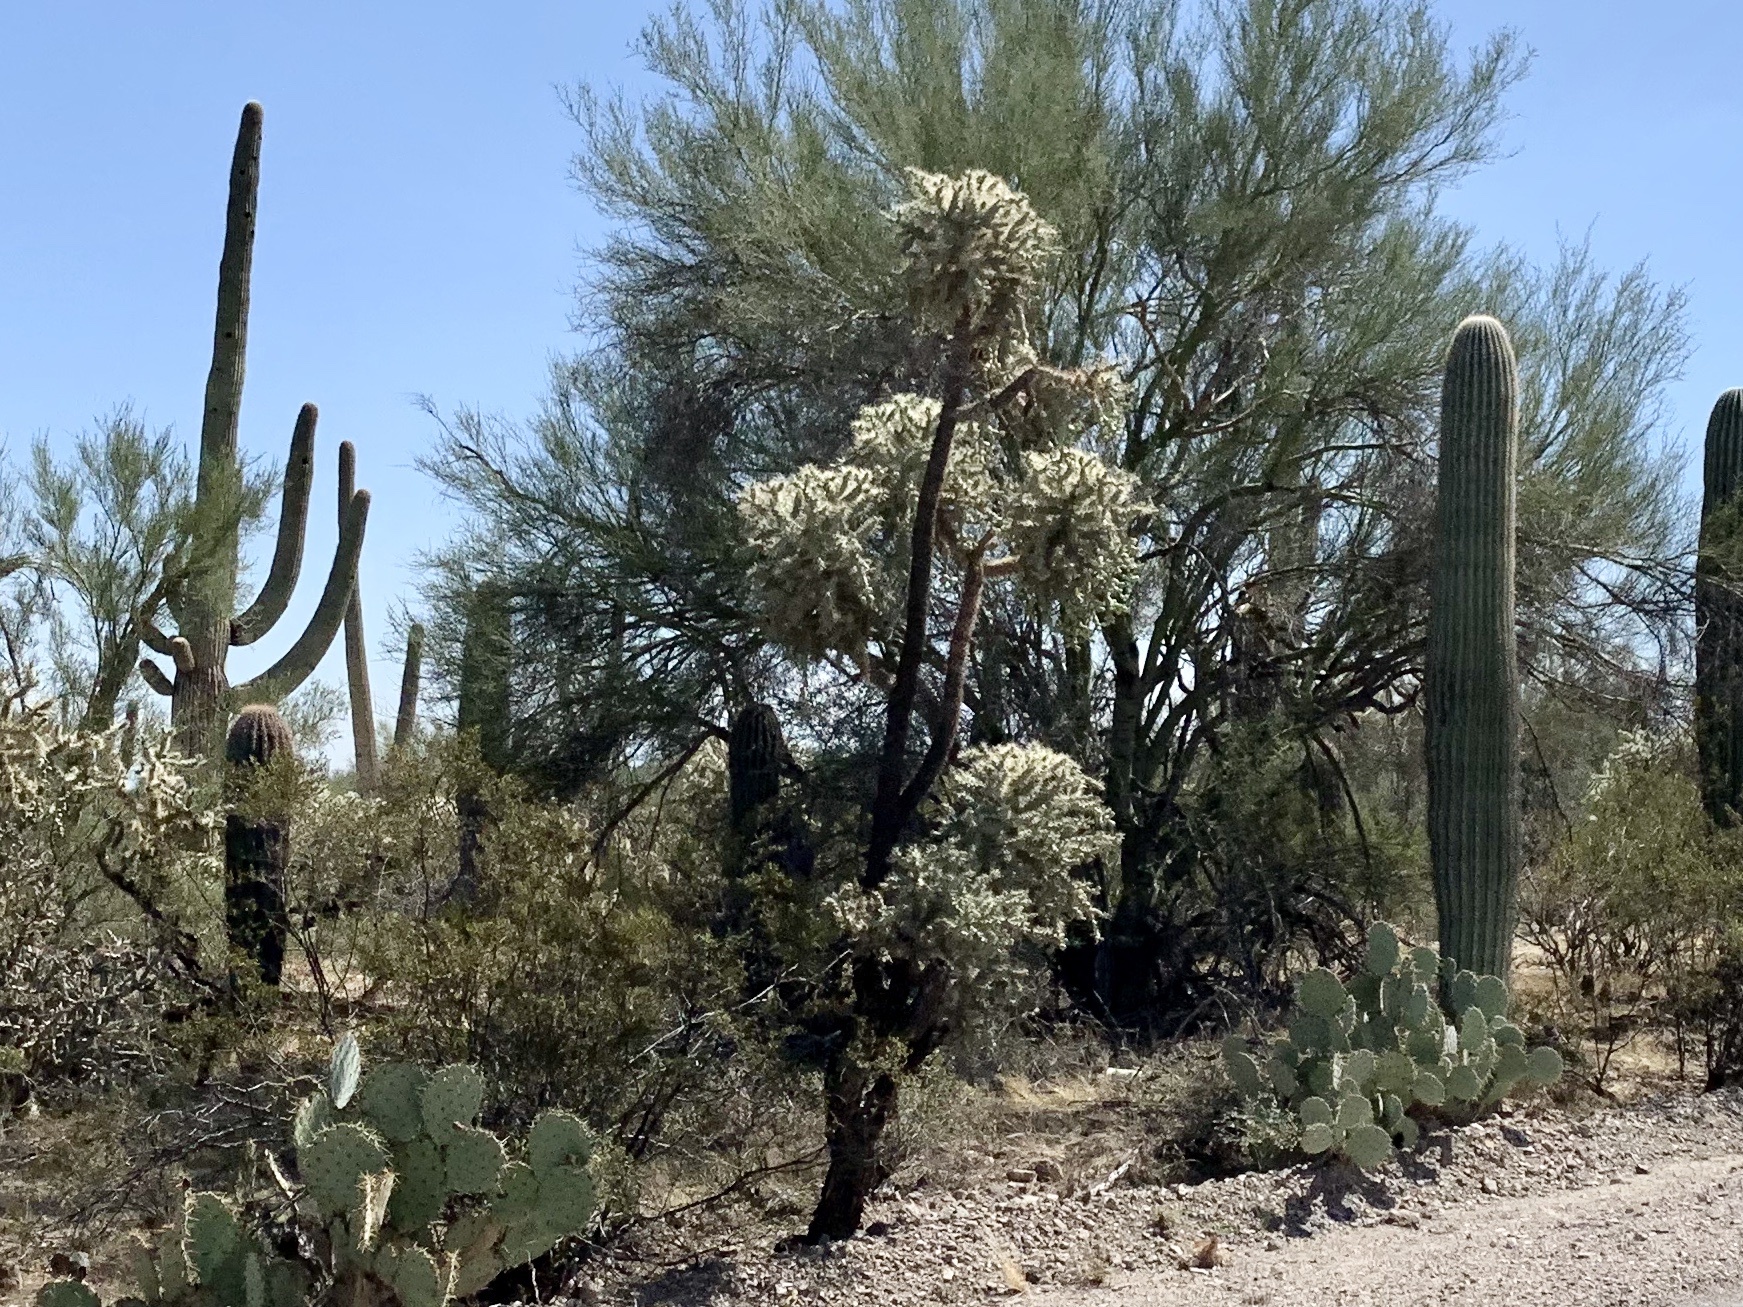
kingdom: Plantae
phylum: Tracheophyta
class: Magnoliopsida
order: Caryophyllales
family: Cactaceae
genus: Cylindropuntia
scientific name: Cylindropuntia fulgida
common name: Jumping cholla
